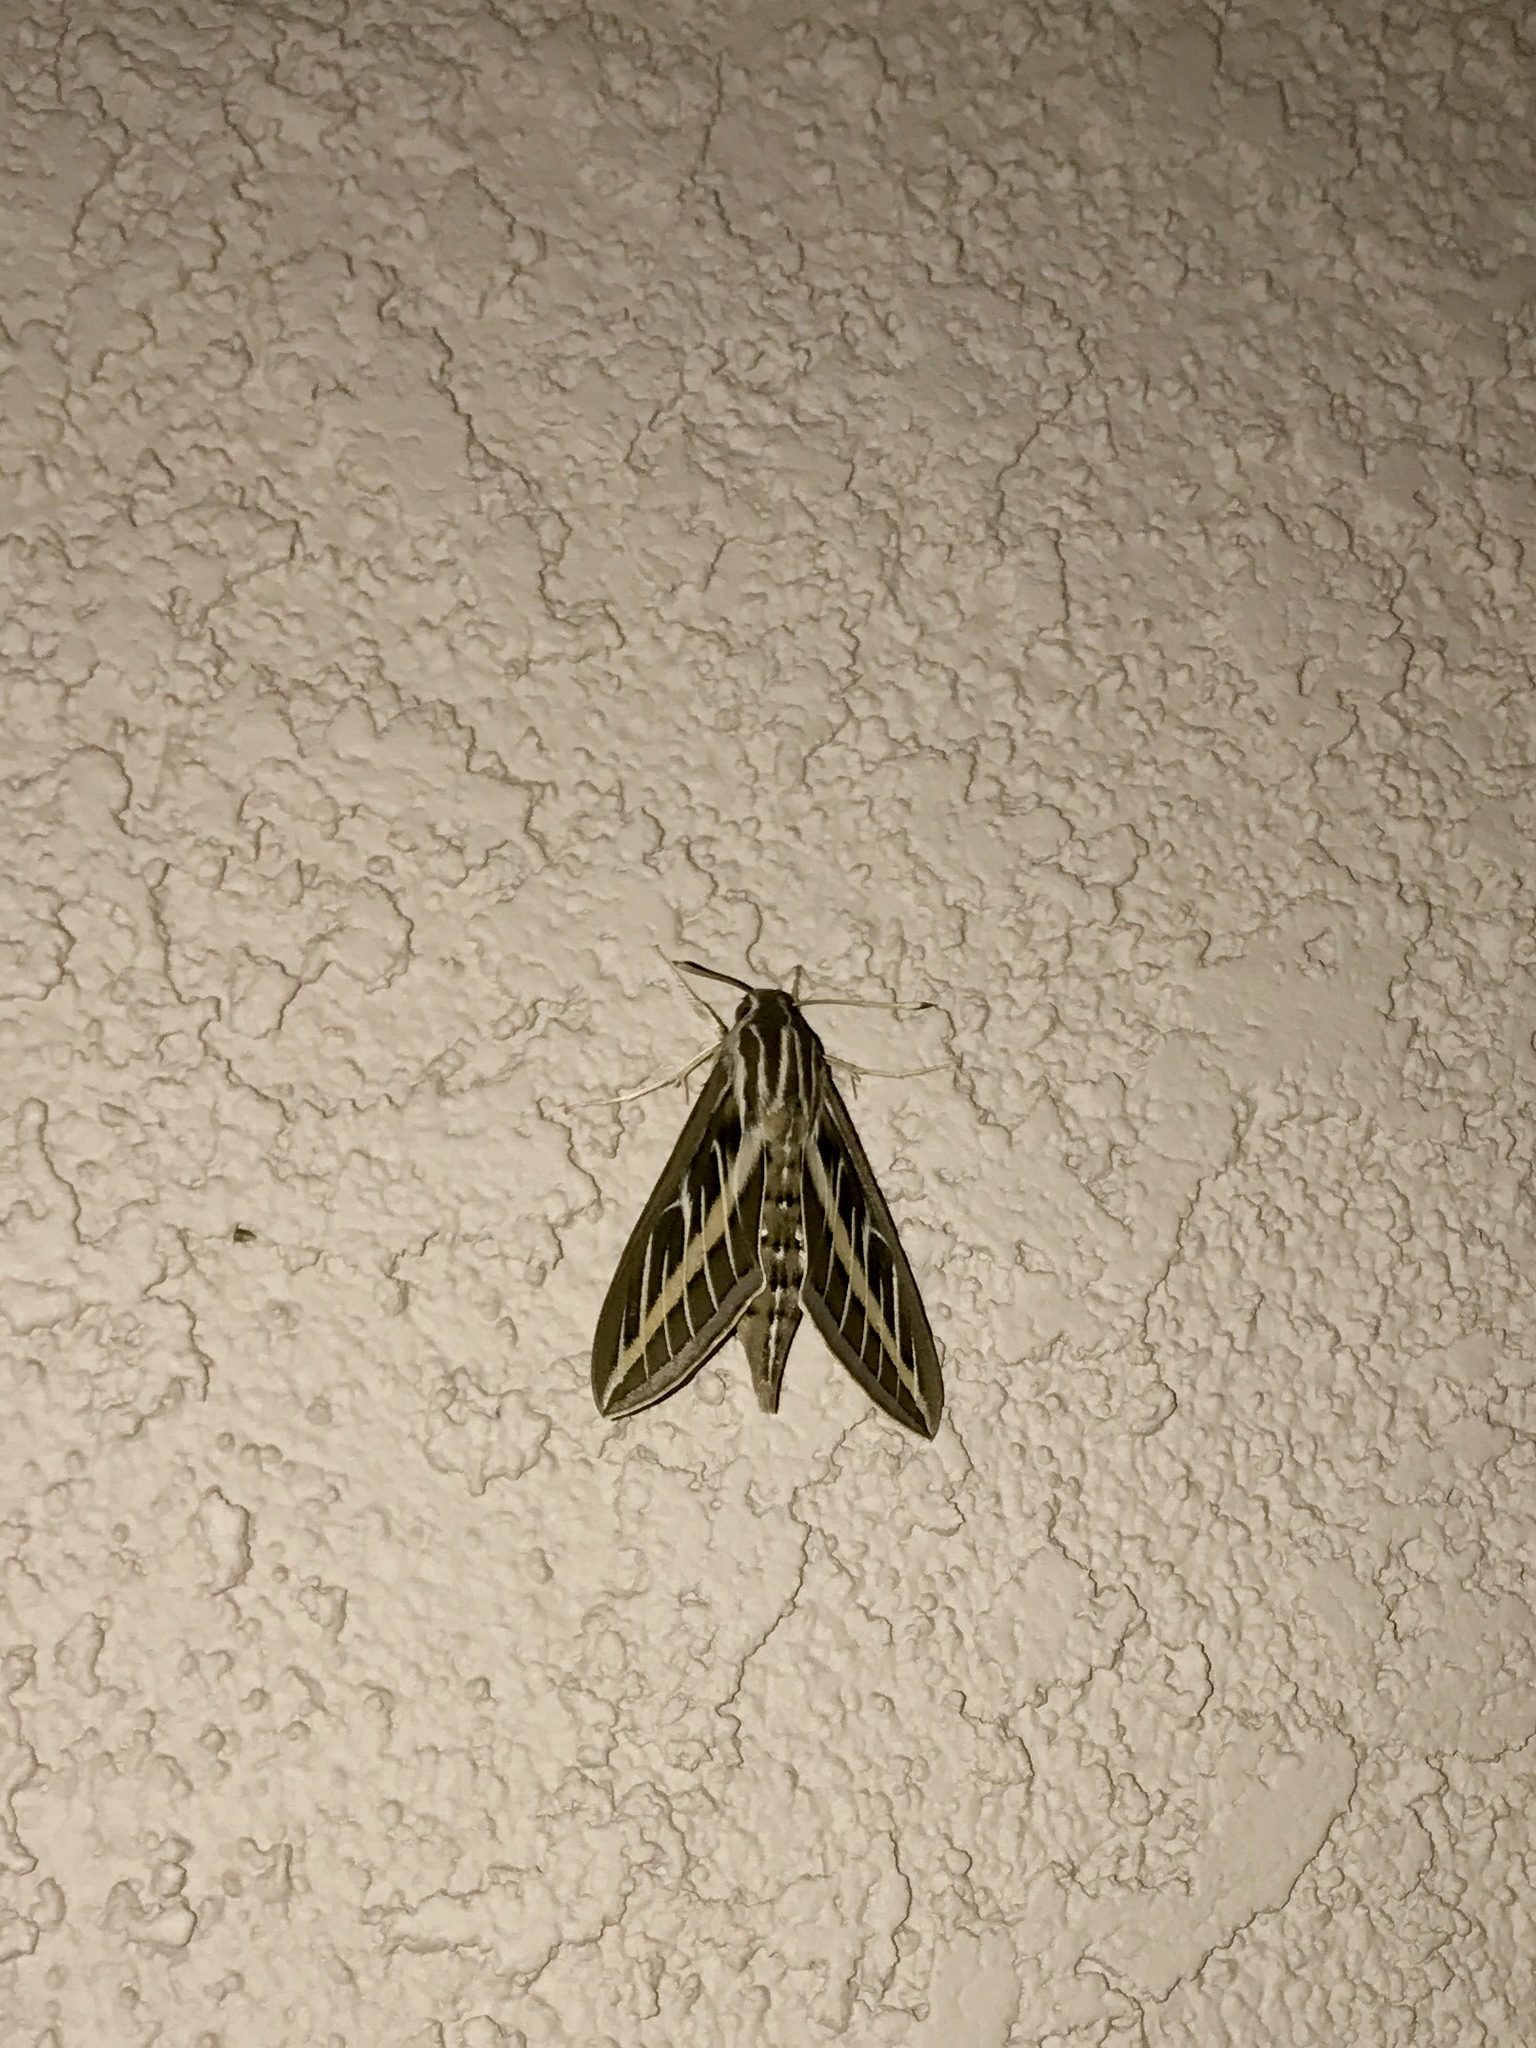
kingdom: Animalia
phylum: Arthropoda
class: Insecta
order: Lepidoptera
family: Sphingidae
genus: Hyles
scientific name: Hyles lineata
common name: White-lined sphinx
